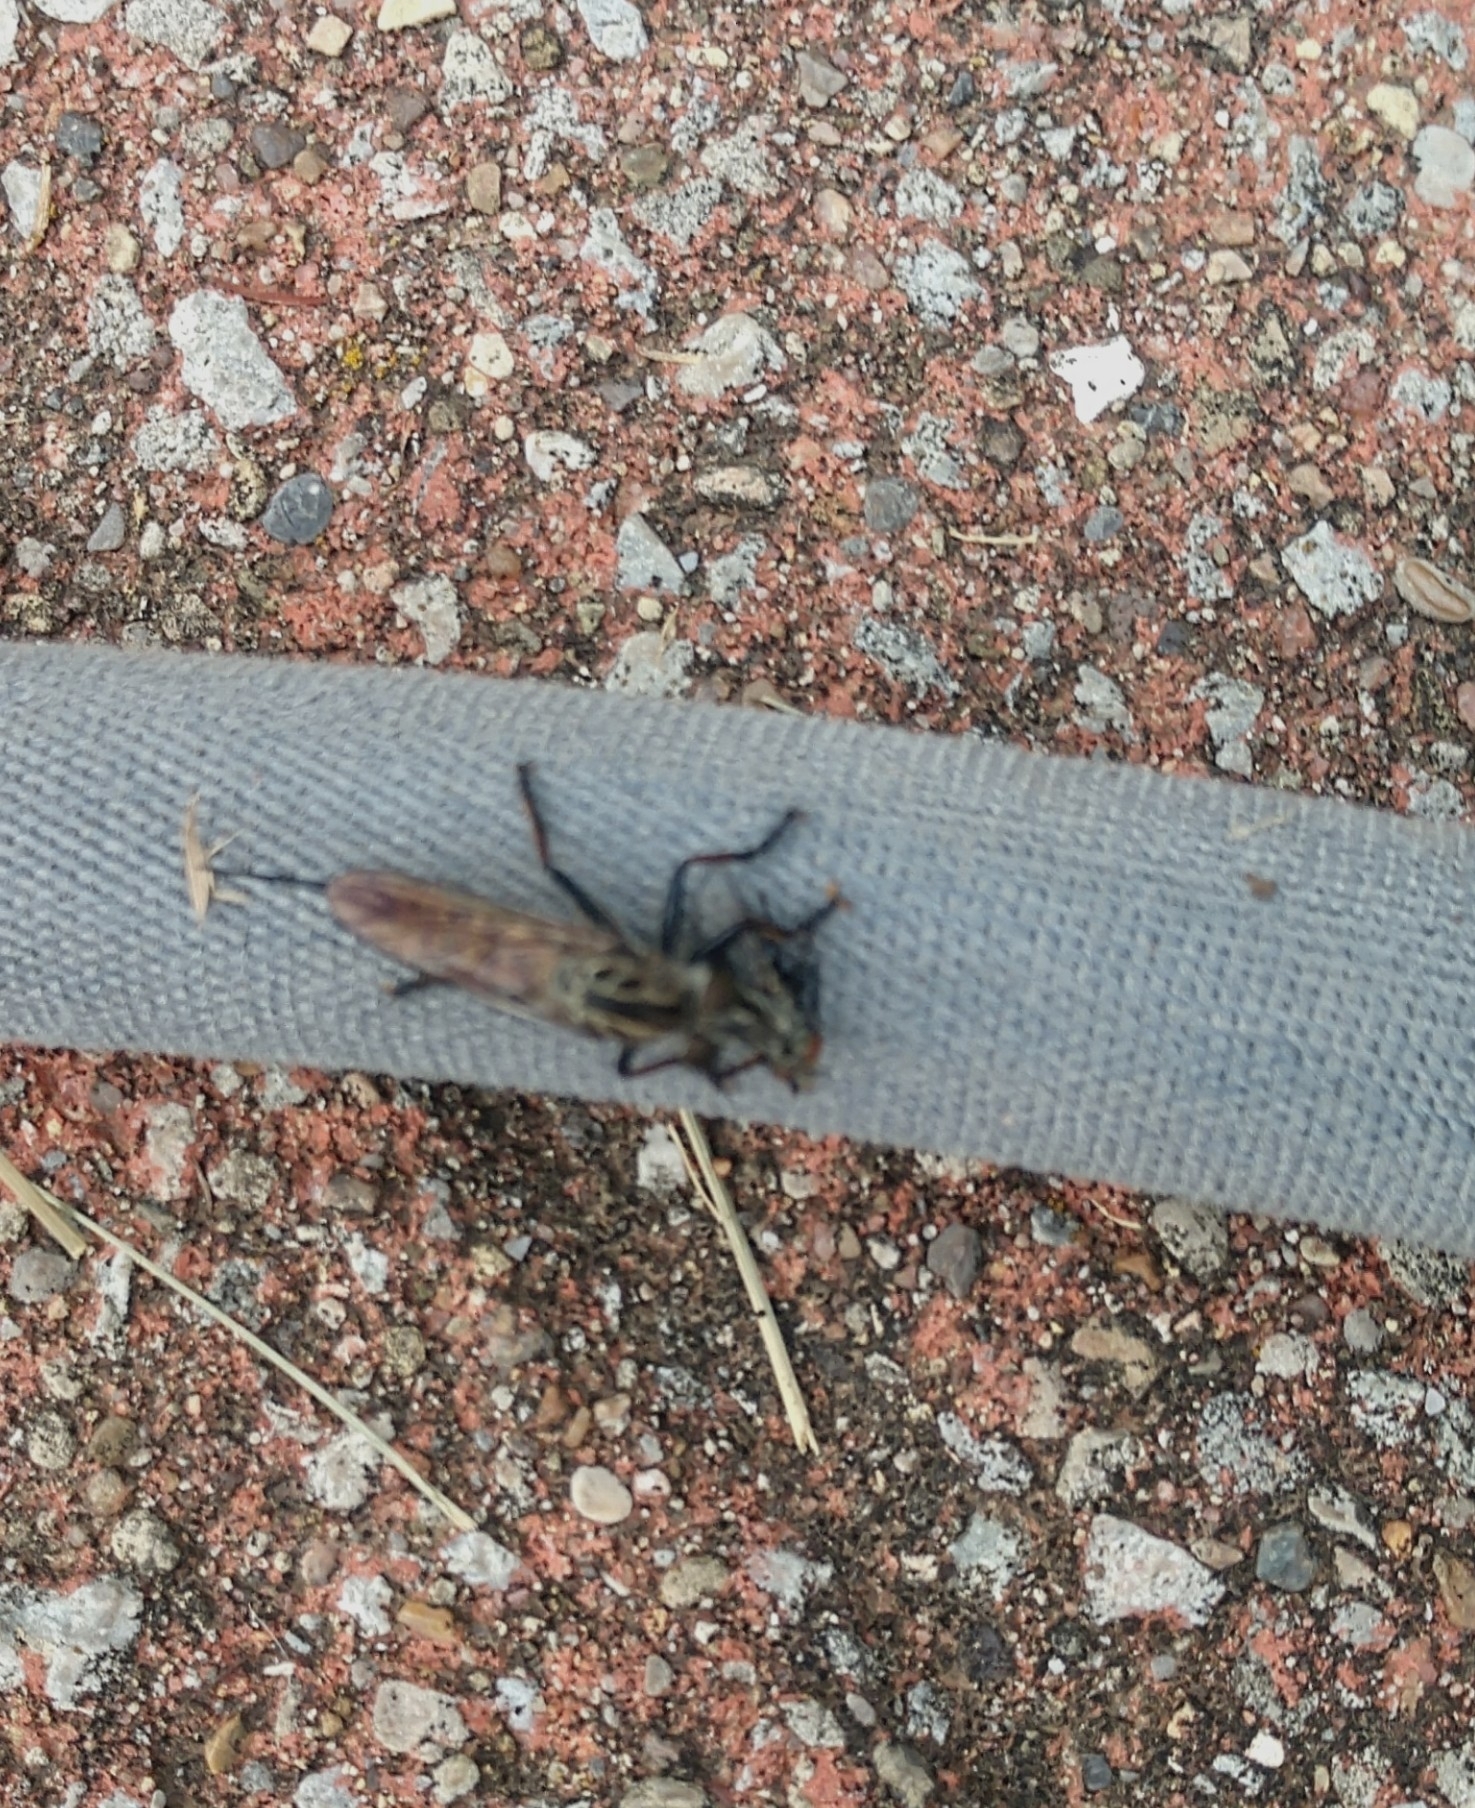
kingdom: Animalia
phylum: Arthropoda
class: Insecta
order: Diptera
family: Asilidae
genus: Efferia
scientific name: Efferia aestuans
